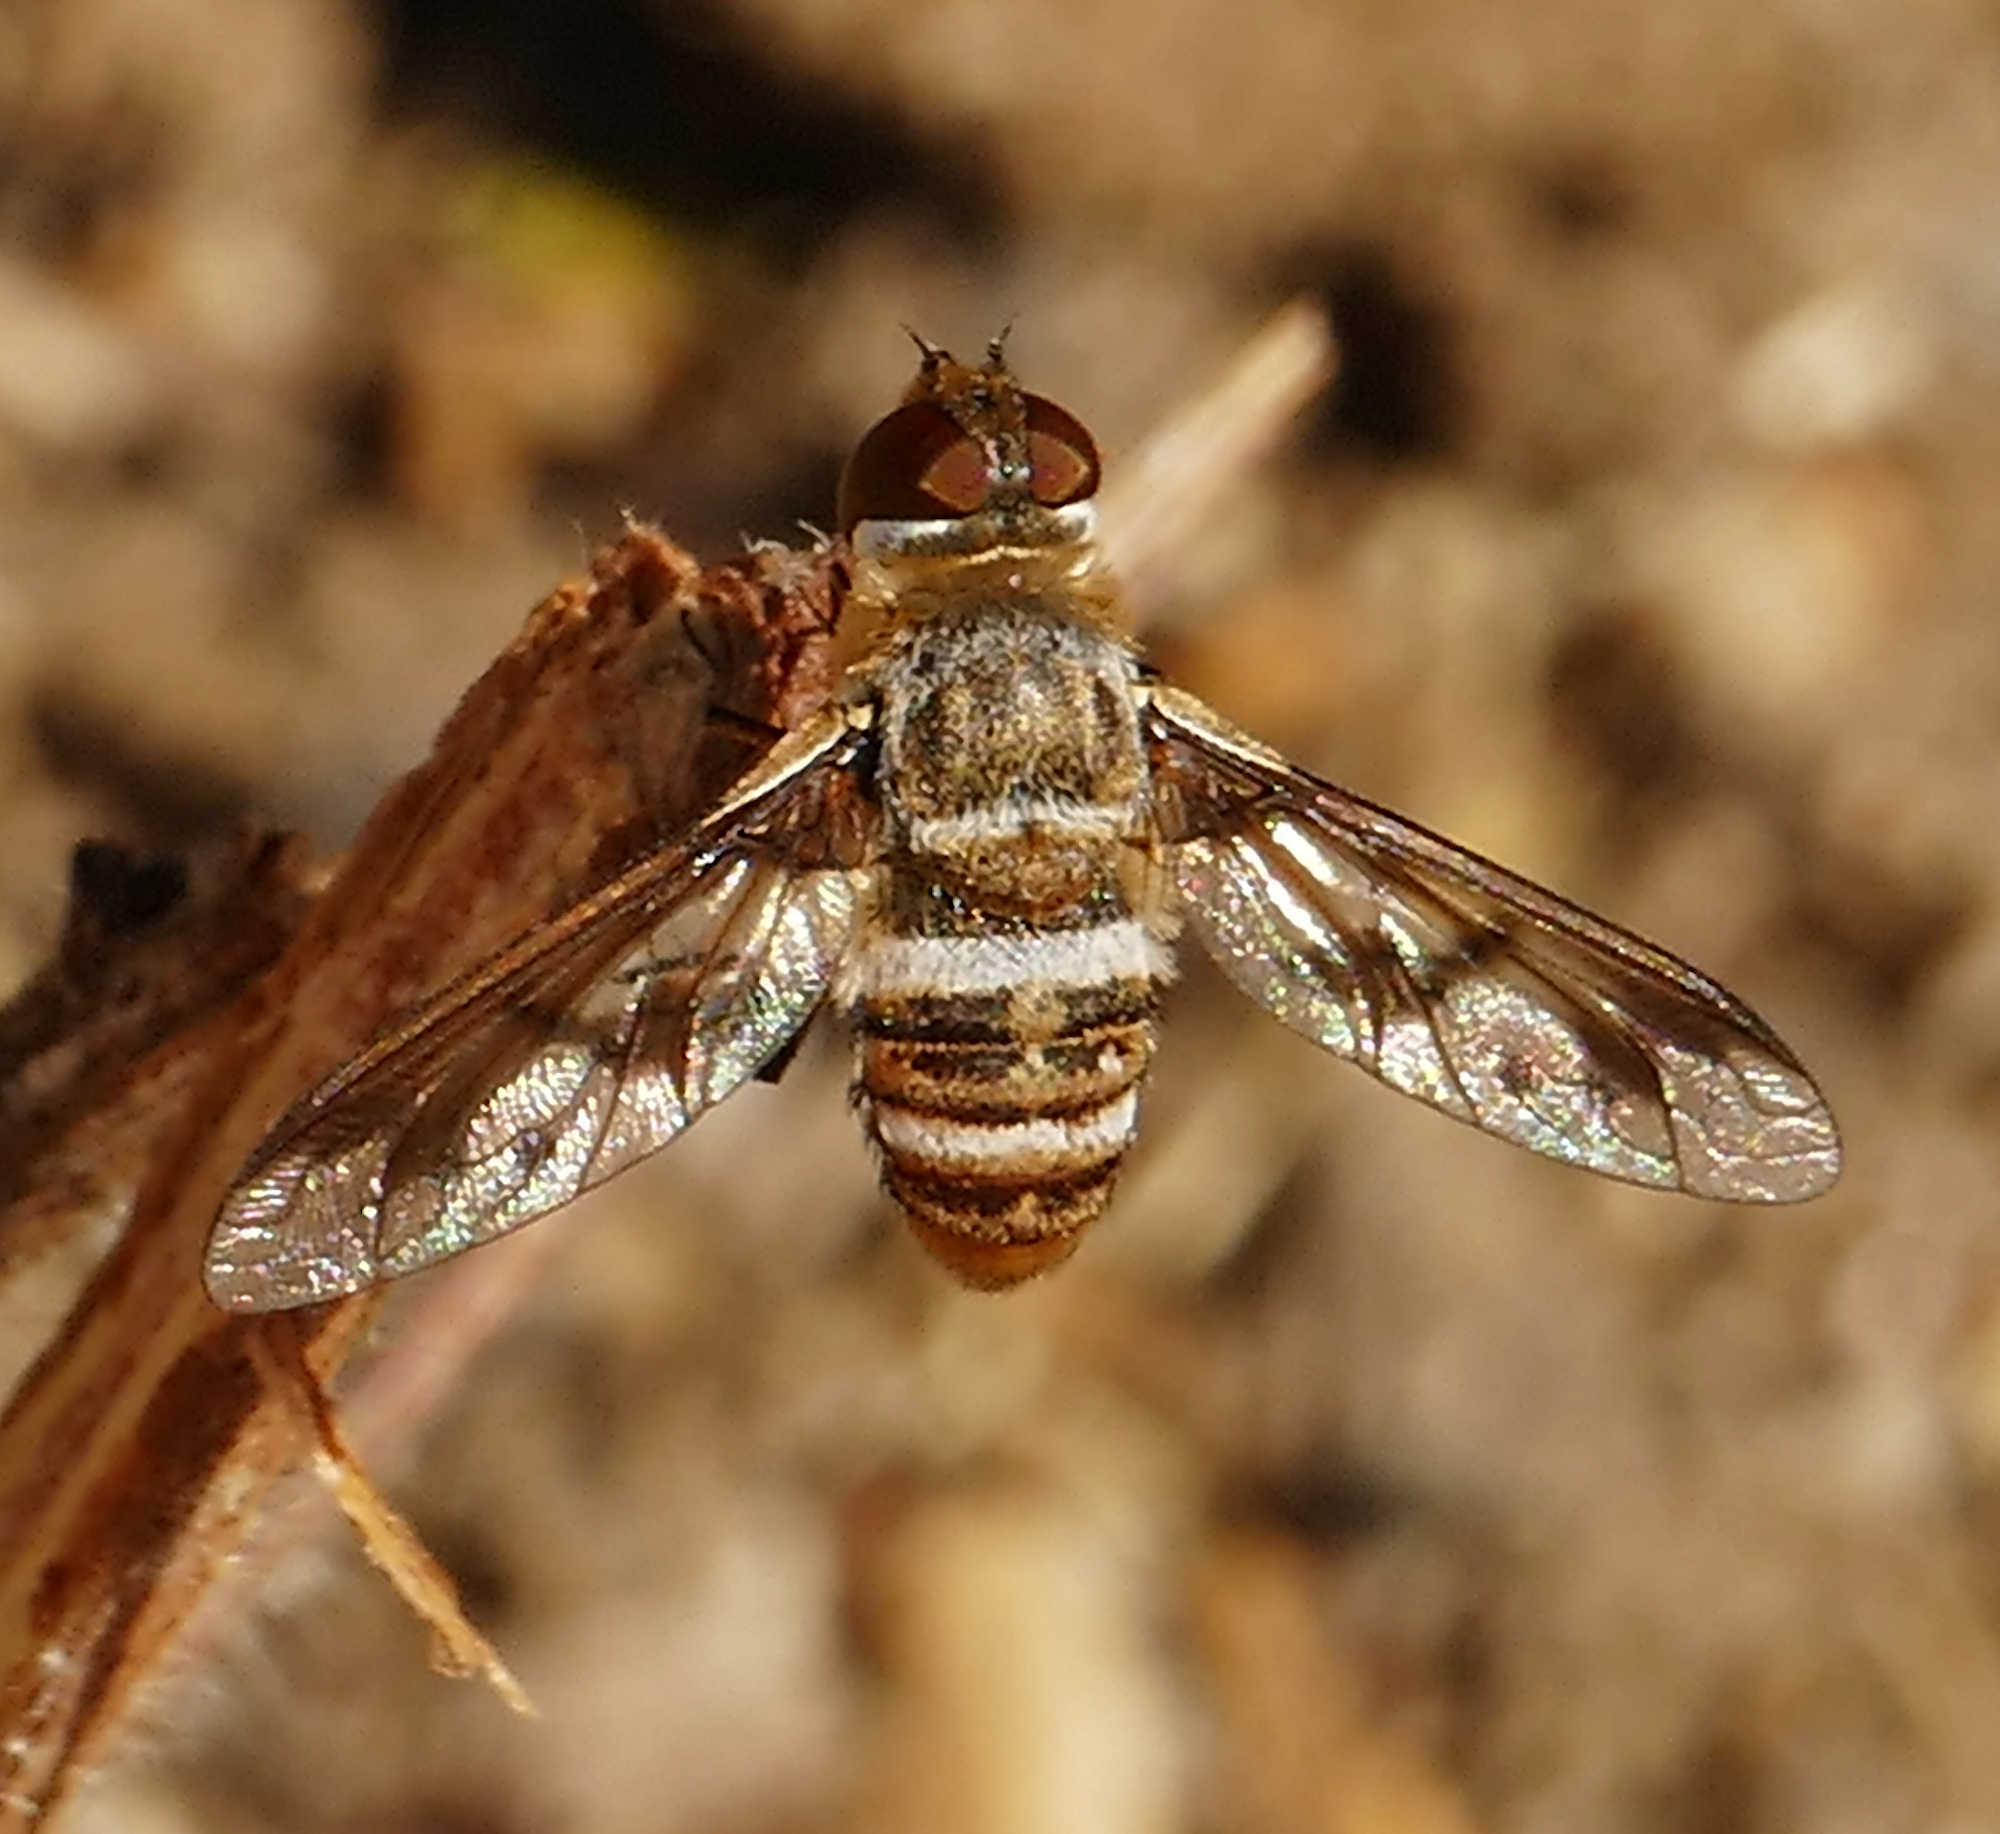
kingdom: Animalia
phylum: Arthropoda
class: Insecta
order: Diptera
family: Bombyliidae
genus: Exoprosopa
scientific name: Exoprosopa butleri
